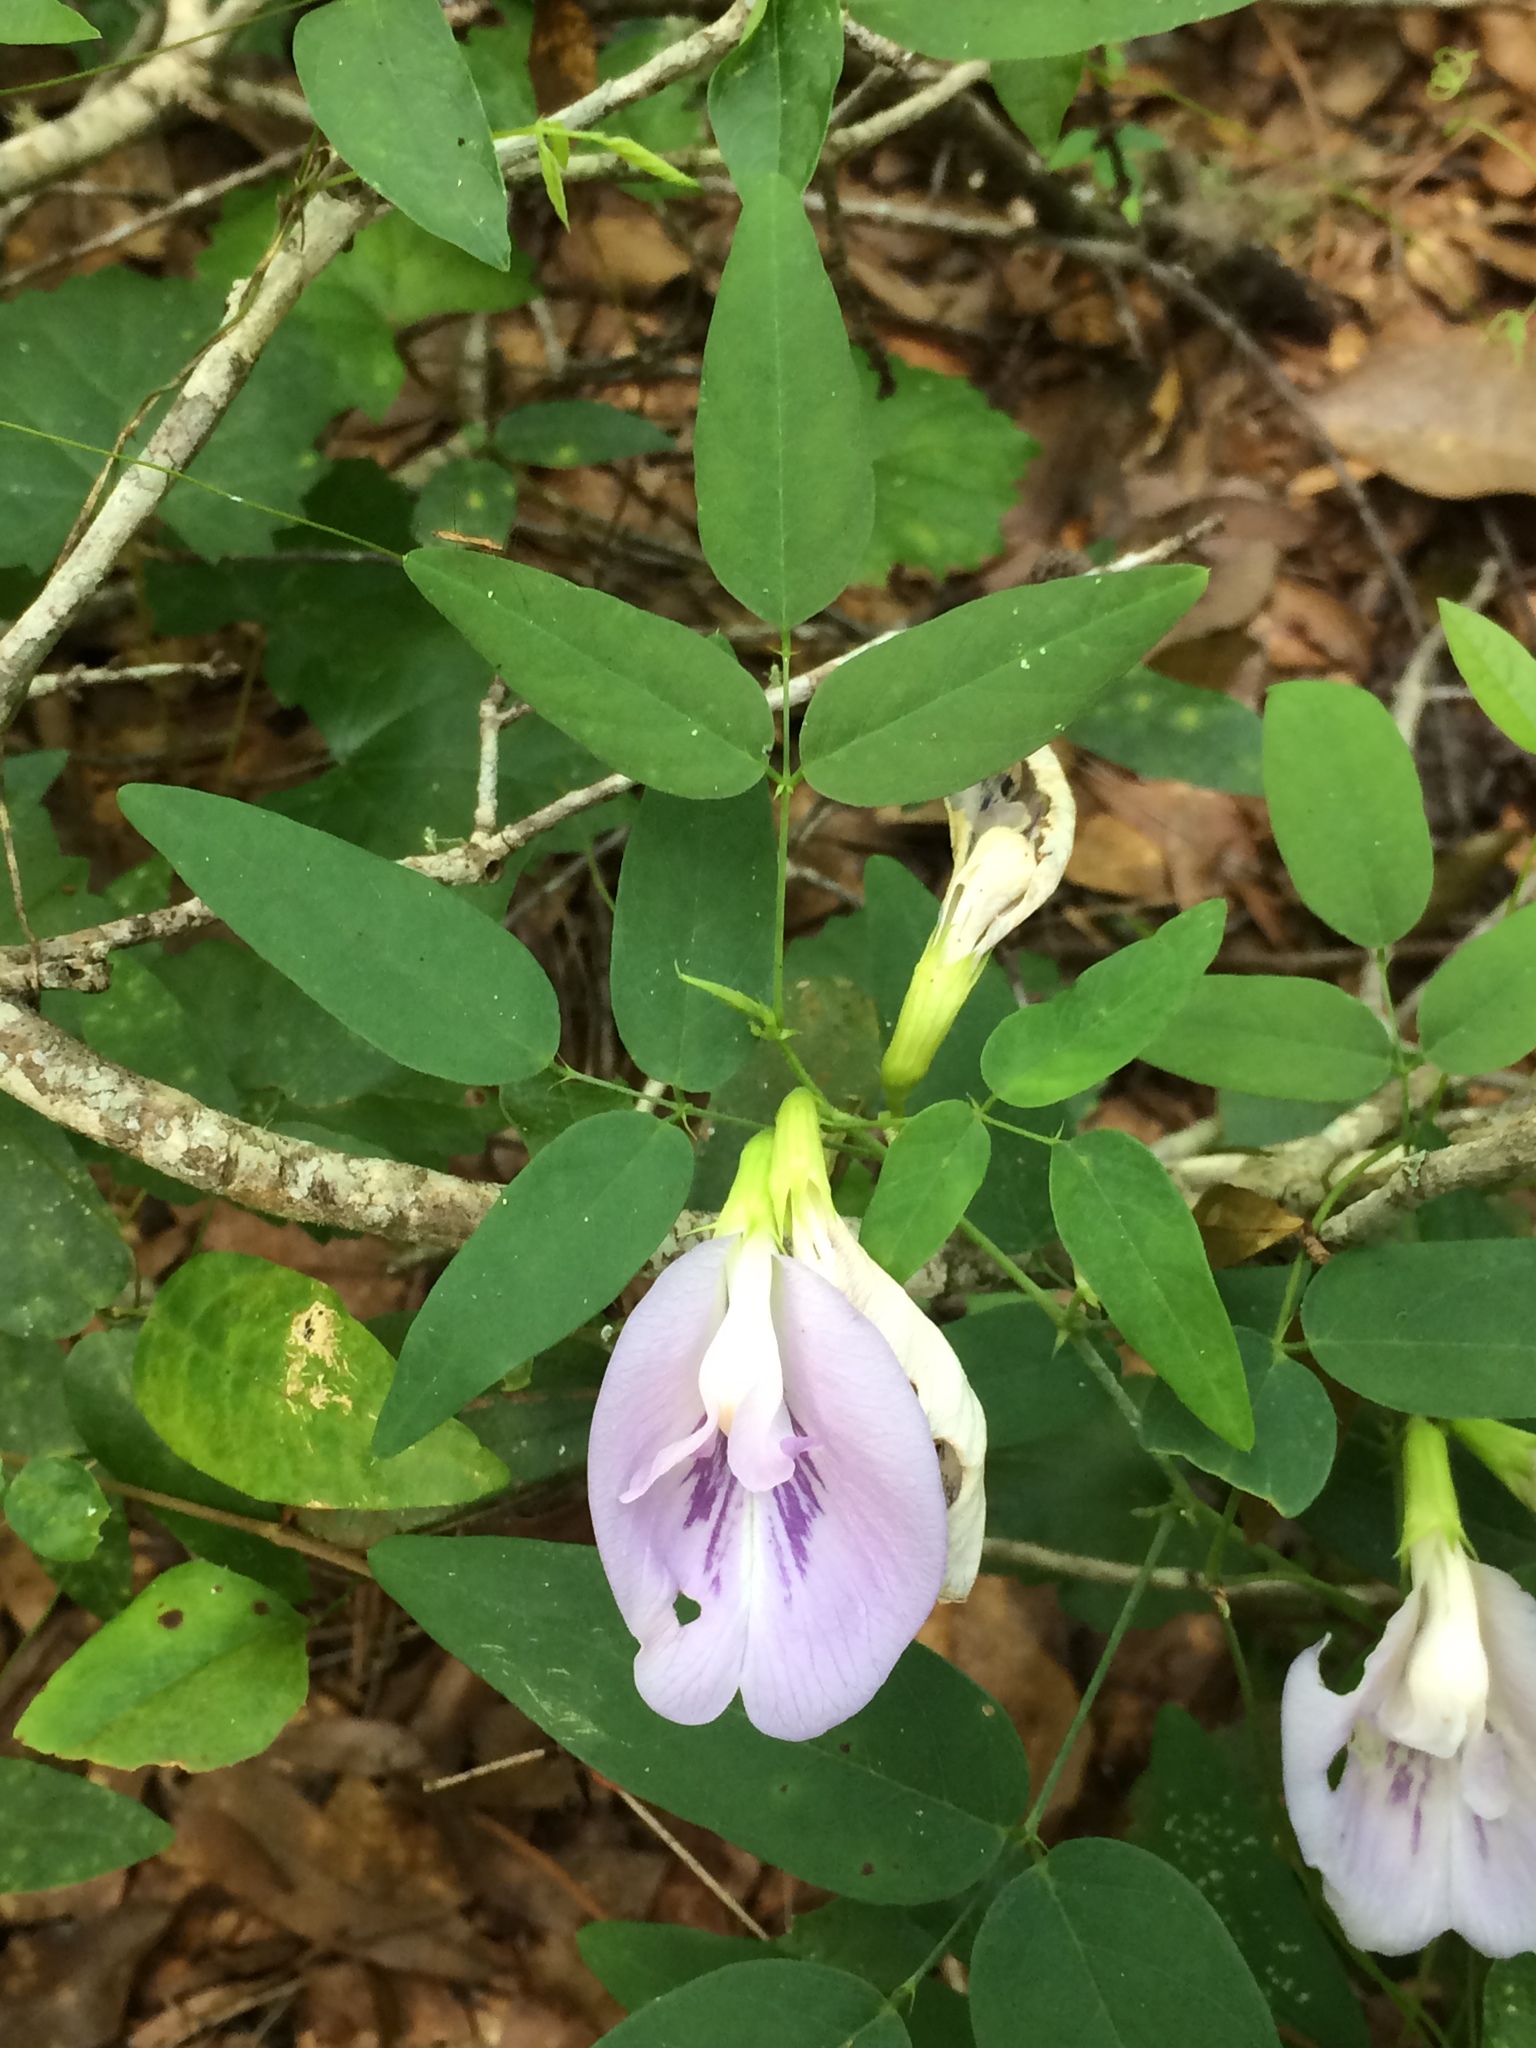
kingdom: Plantae
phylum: Tracheophyta
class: Magnoliopsida
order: Fabales
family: Fabaceae
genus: Clitoria
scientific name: Clitoria mariana
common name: Butterfly-pea
